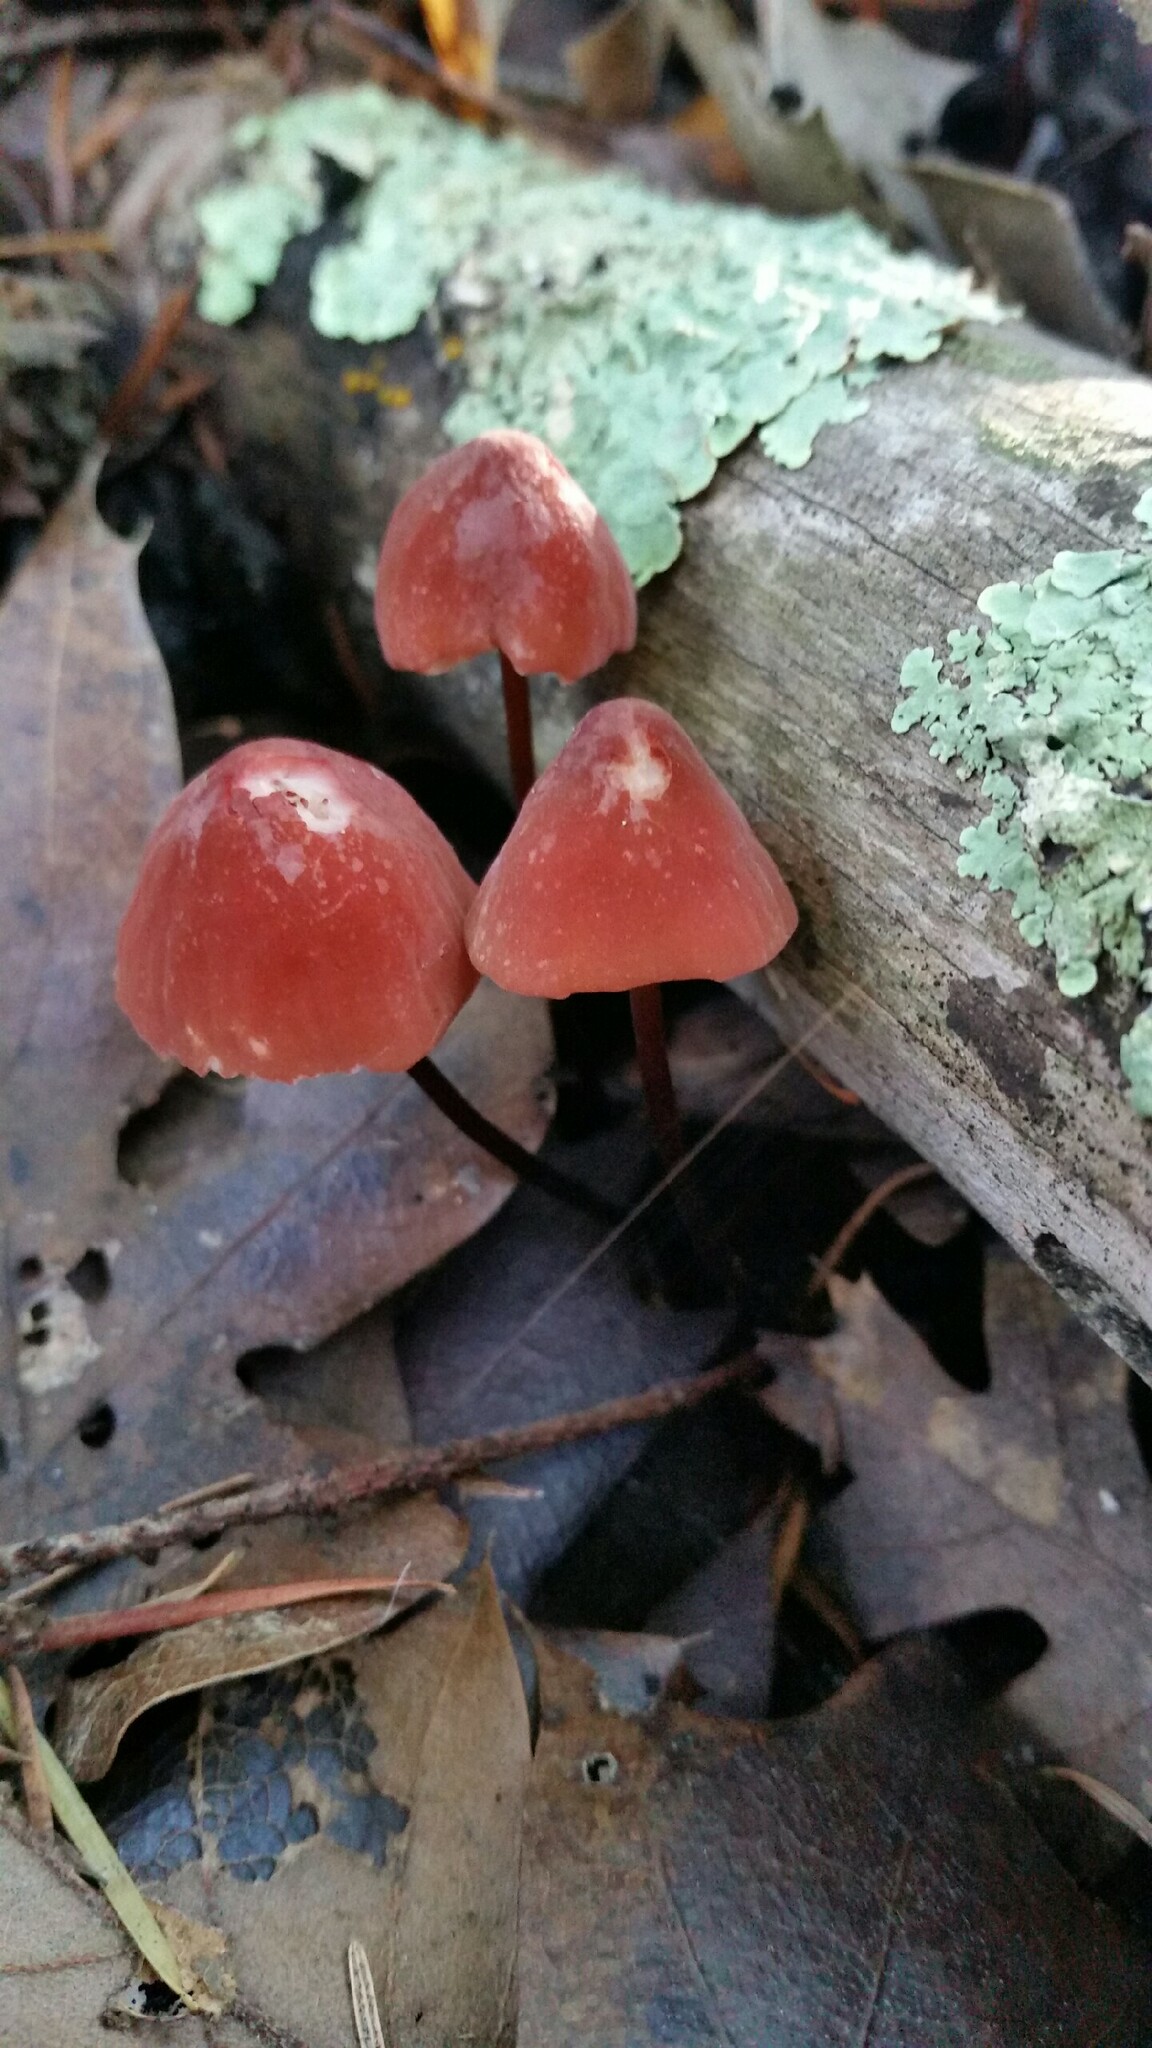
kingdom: Fungi
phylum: Basidiomycota
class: Agaricomycetes
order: Agaricales
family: Marasmiaceae
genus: Marasmius
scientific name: Marasmius plicatulus
